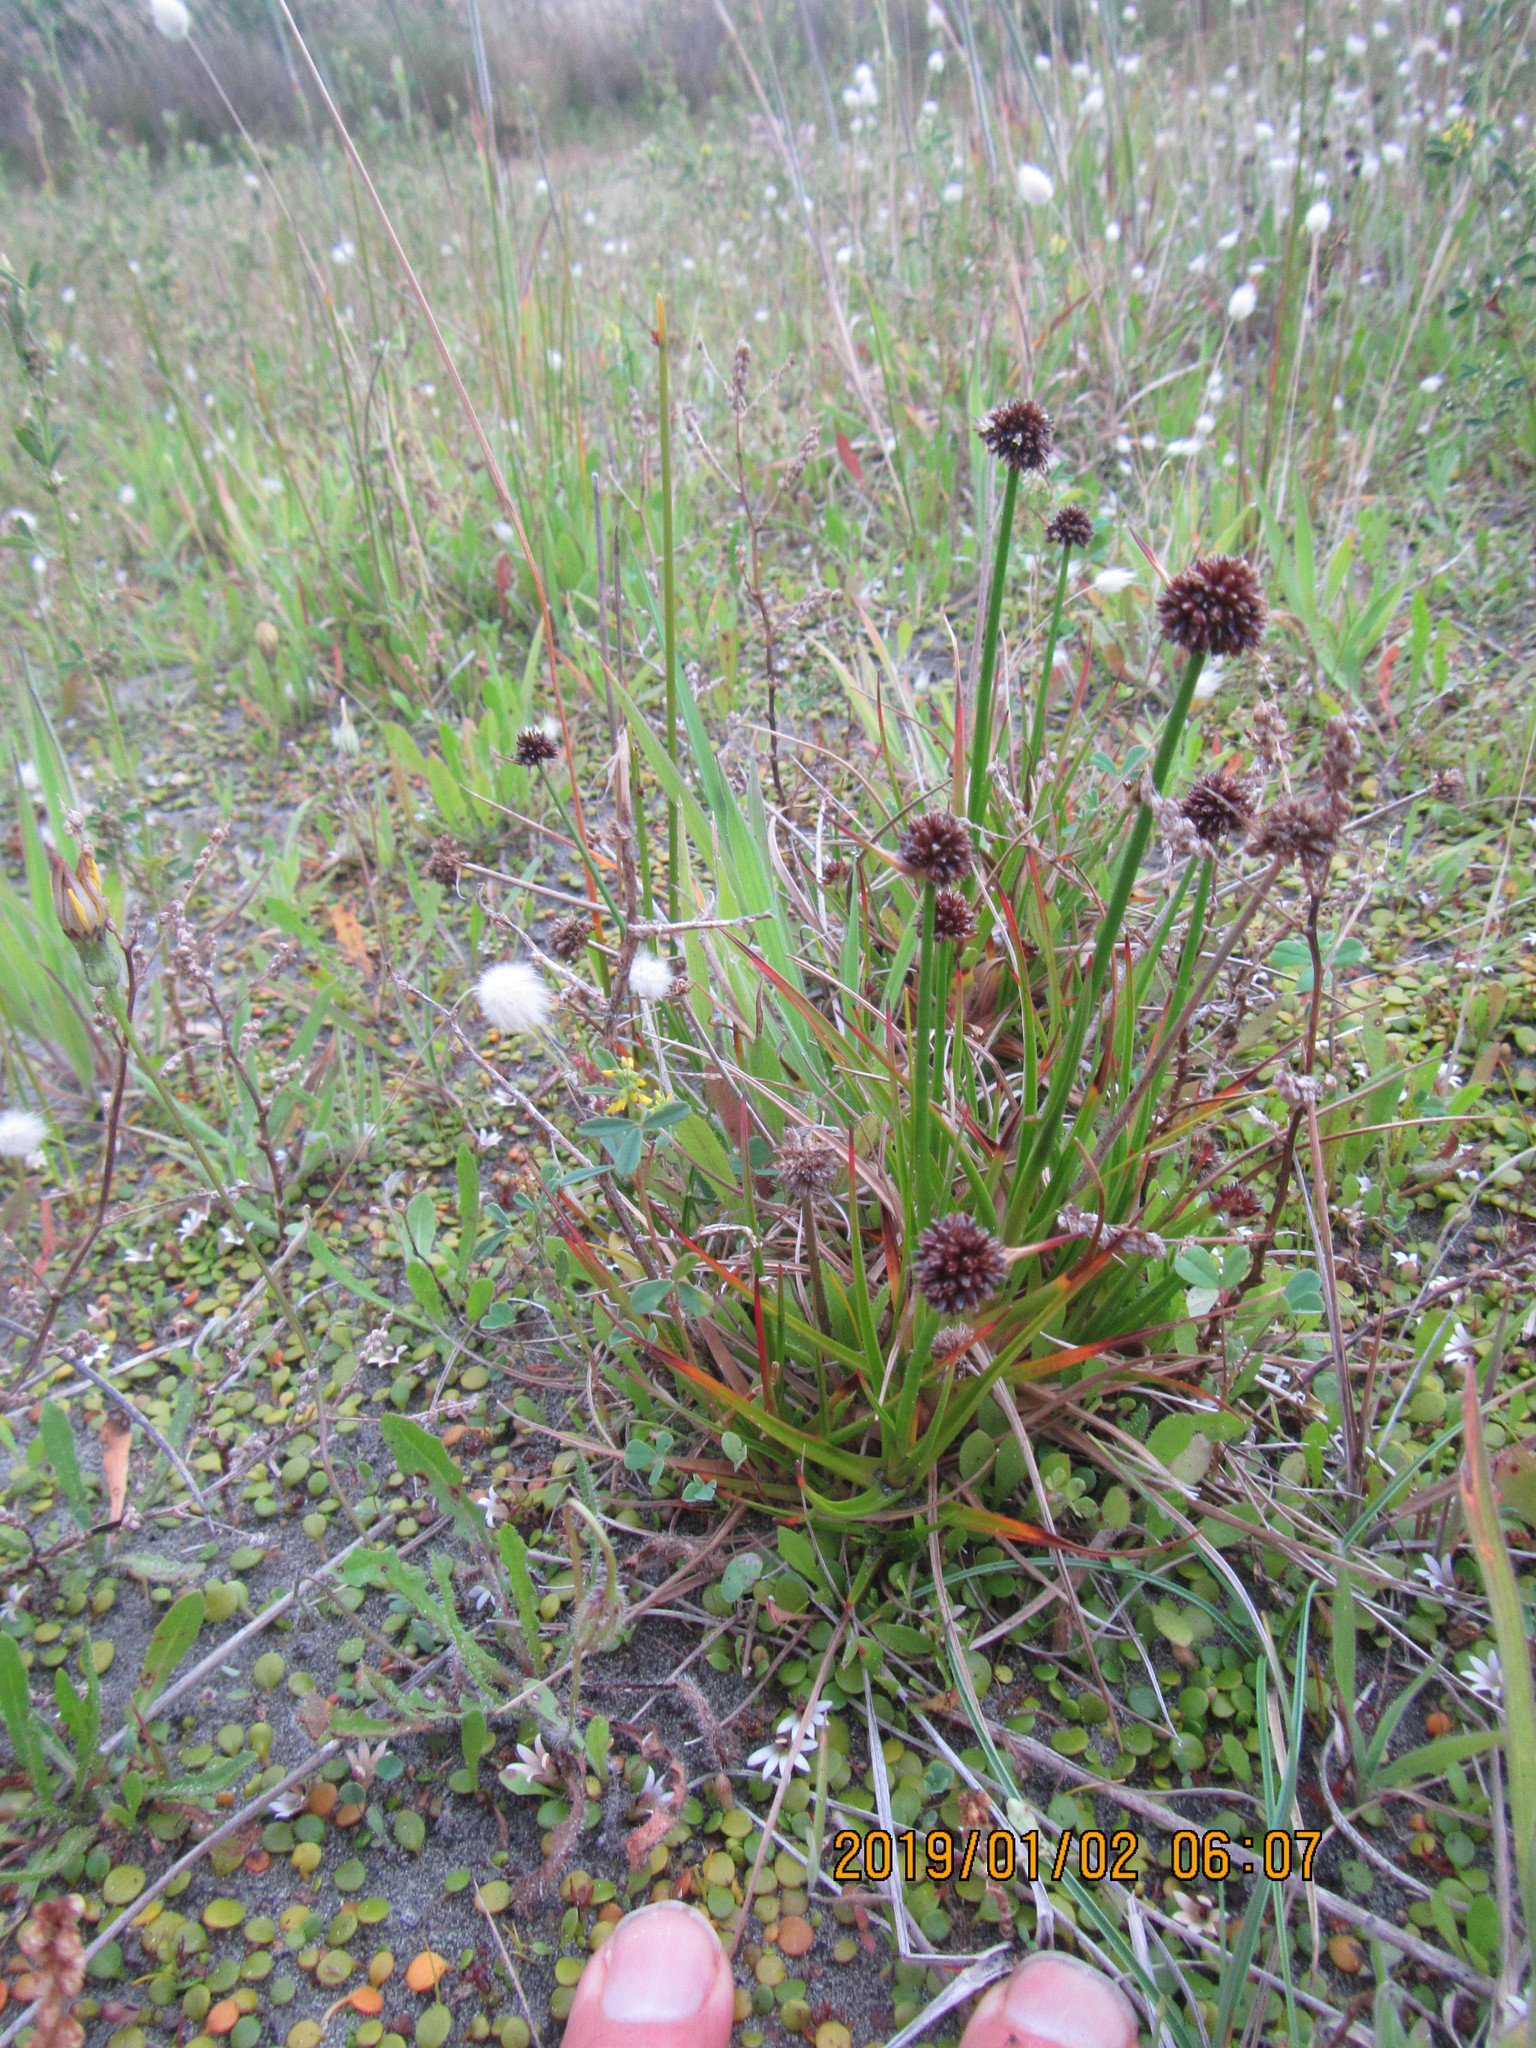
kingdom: Plantae
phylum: Tracheophyta
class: Liliopsida
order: Poales
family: Juncaceae
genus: Juncus
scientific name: Juncus caespiticius
